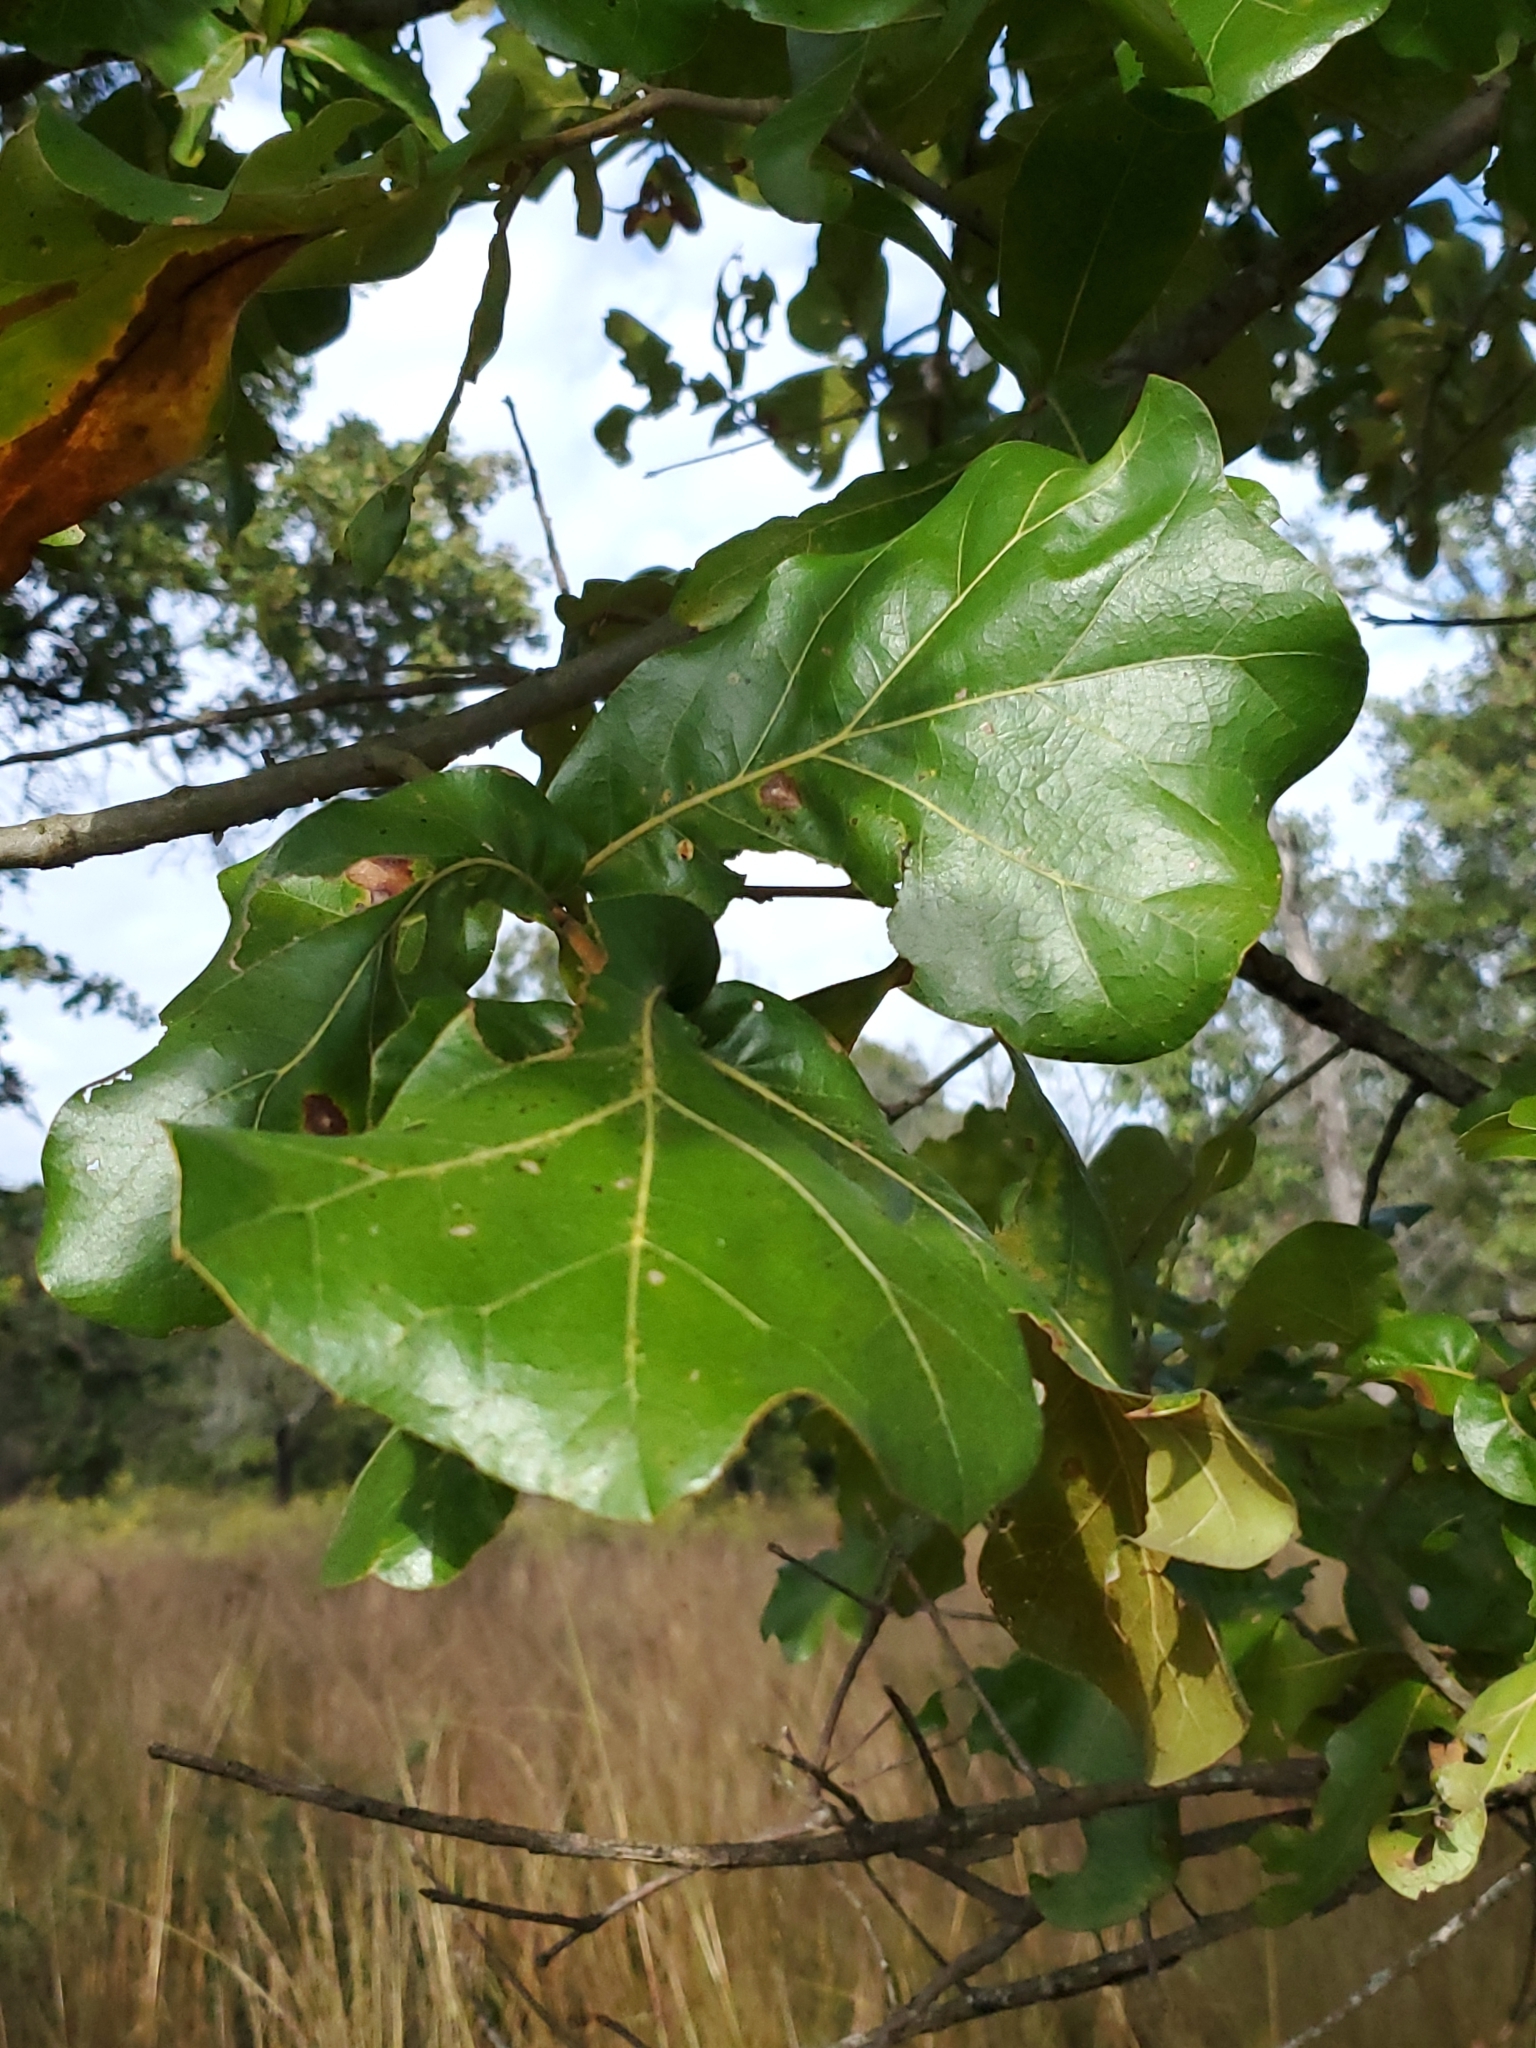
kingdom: Plantae
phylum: Tracheophyta
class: Magnoliopsida
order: Fagales
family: Fagaceae
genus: Quercus
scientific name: Quercus marilandica
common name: Blackjack oak
